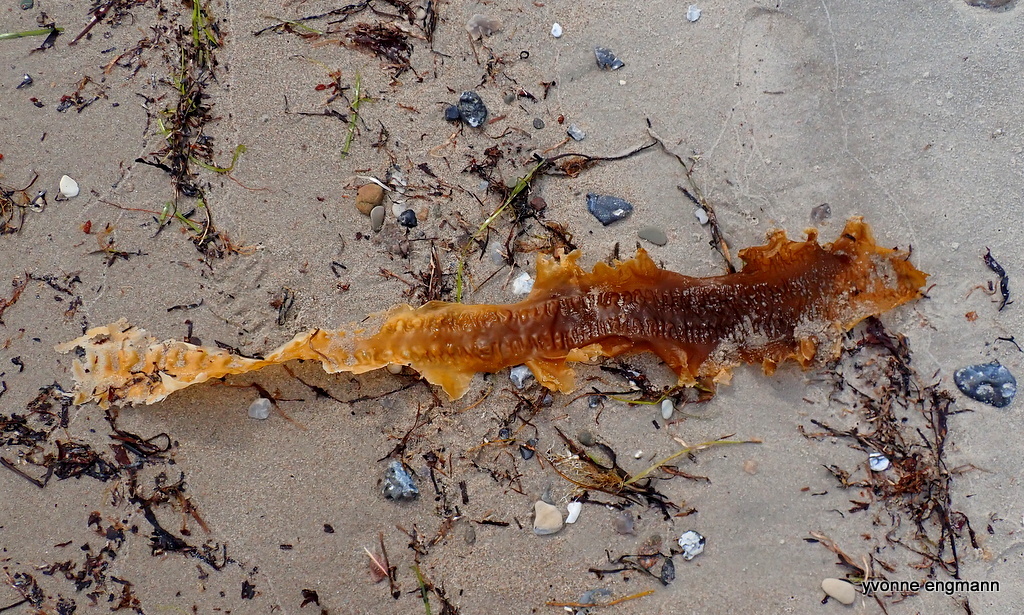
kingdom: Chromista
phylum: Ochrophyta
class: Phaeophyceae
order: Laminariales
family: Laminariaceae
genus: Saccharina
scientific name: Saccharina latissima
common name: Poor man's weather glass
